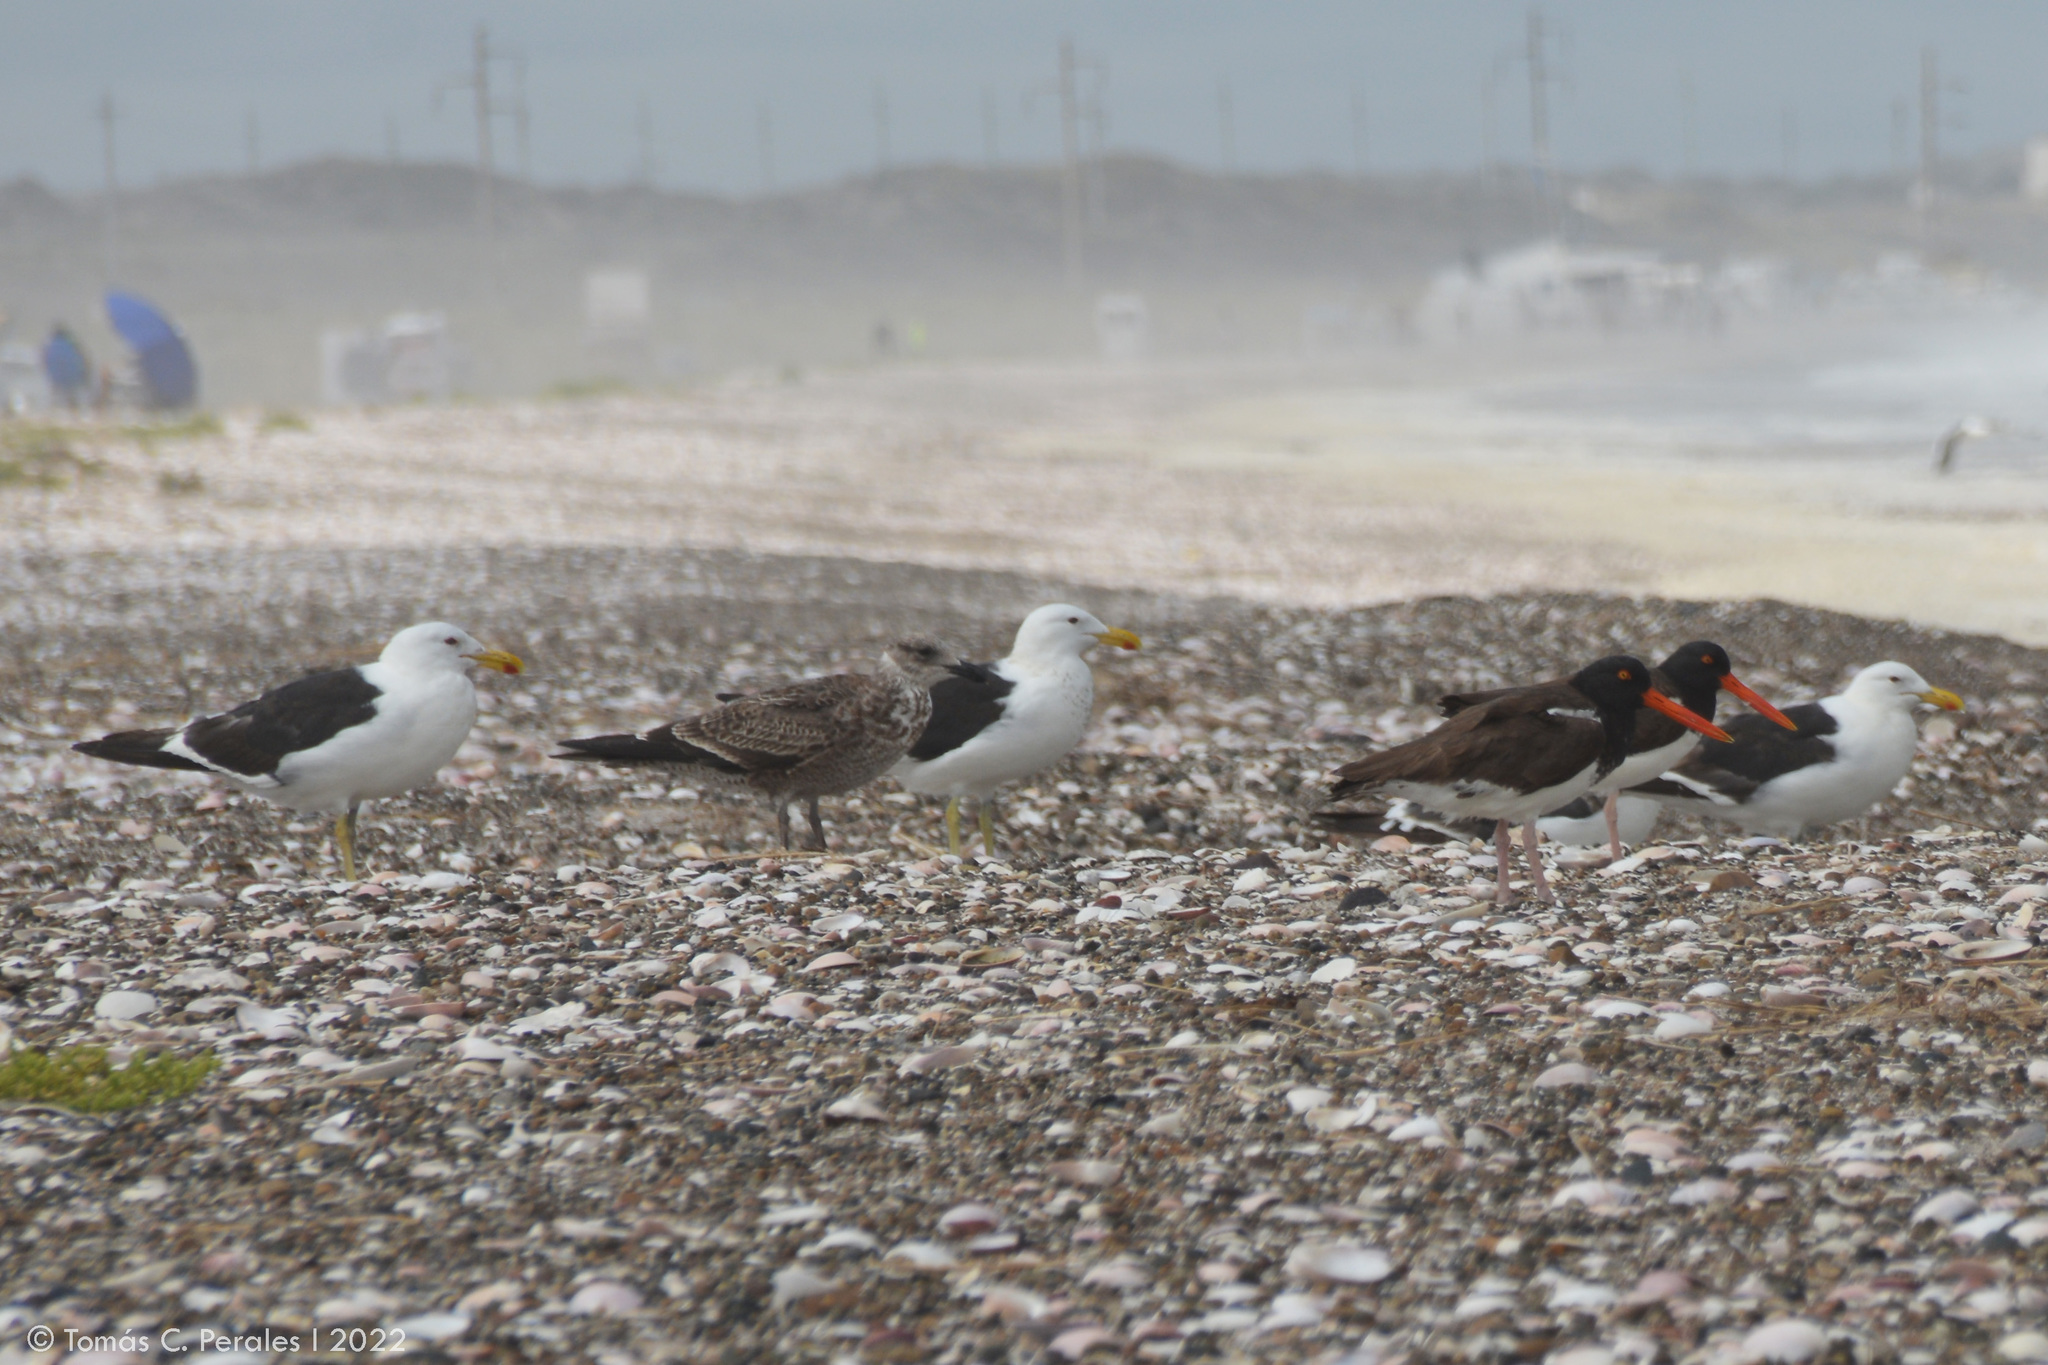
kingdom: Animalia
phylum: Chordata
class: Aves
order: Charadriiformes
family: Laridae
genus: Larus
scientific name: Larus dominicanus
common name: Kelp gull
